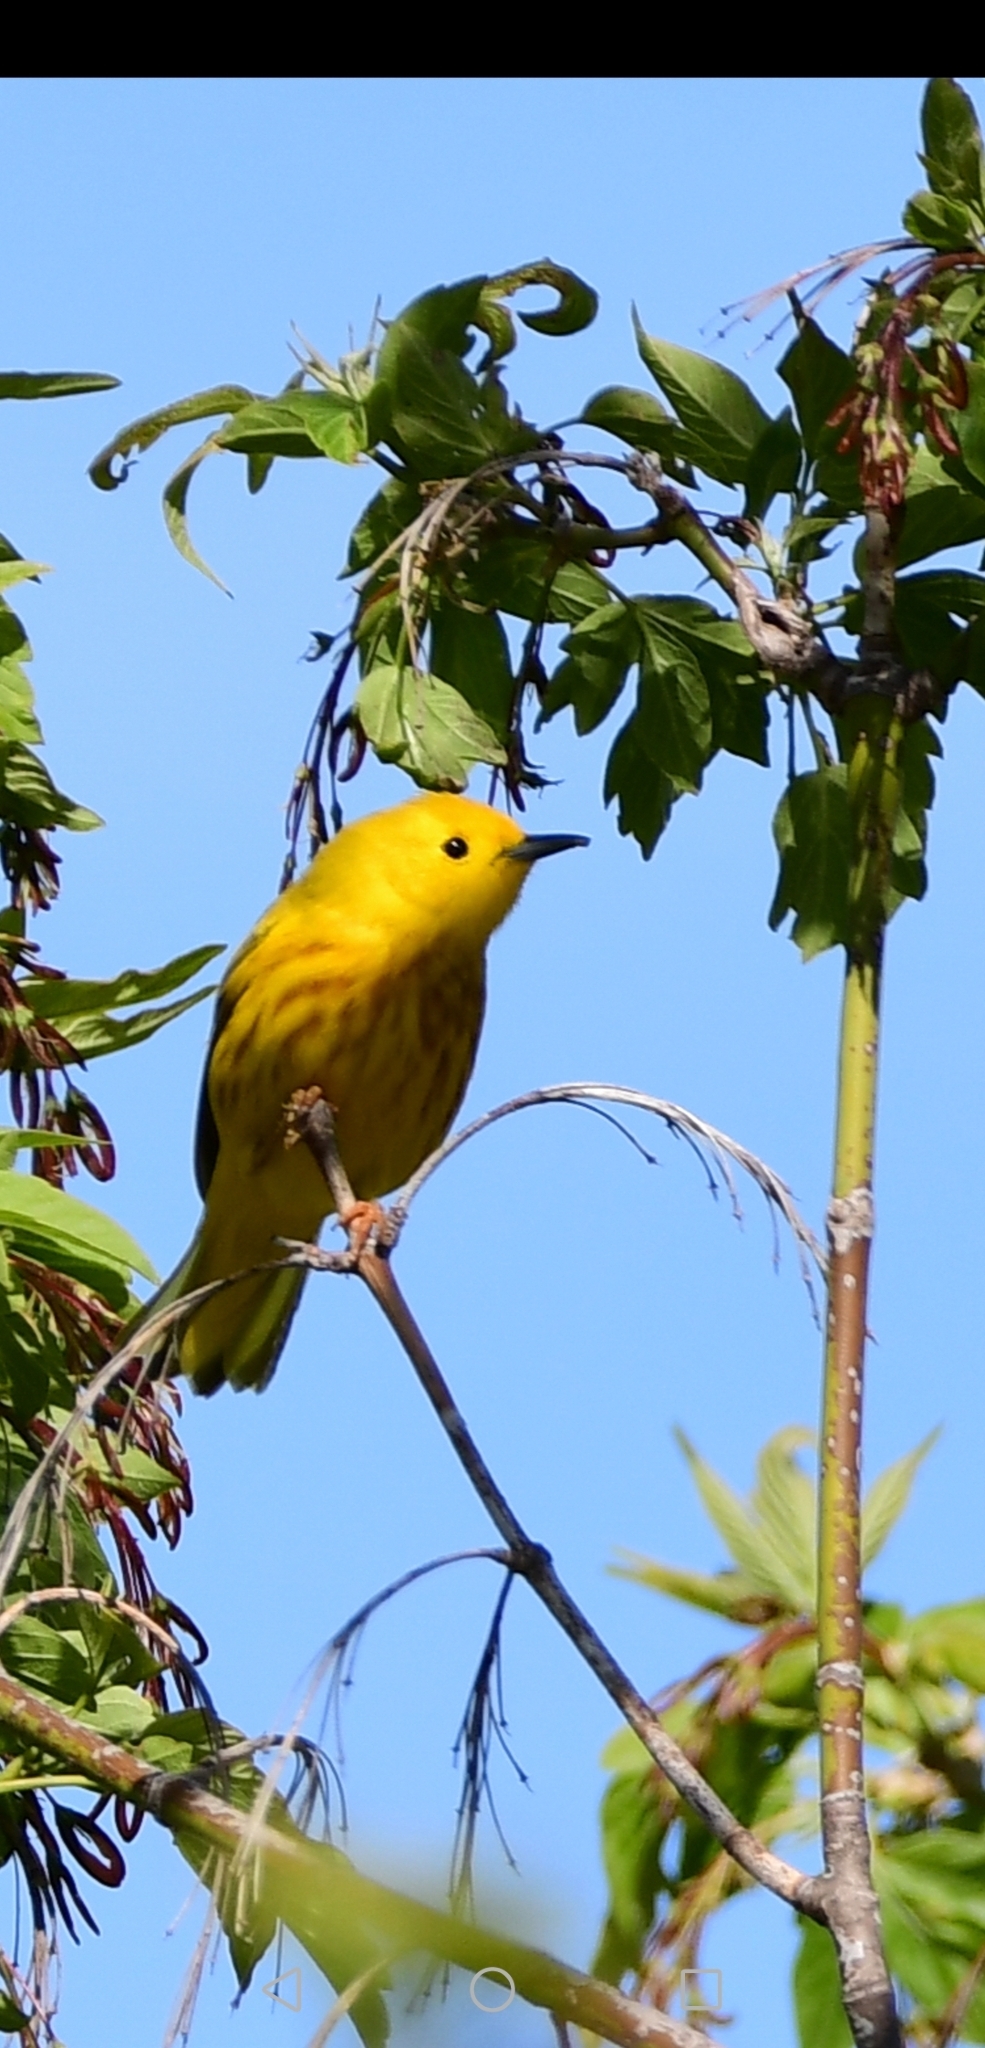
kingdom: Animalia
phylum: Chordata
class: Aves
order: Passeriformes
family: Parulidae
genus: Setophaga
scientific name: Setophaga petechia
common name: Yellow warbler
